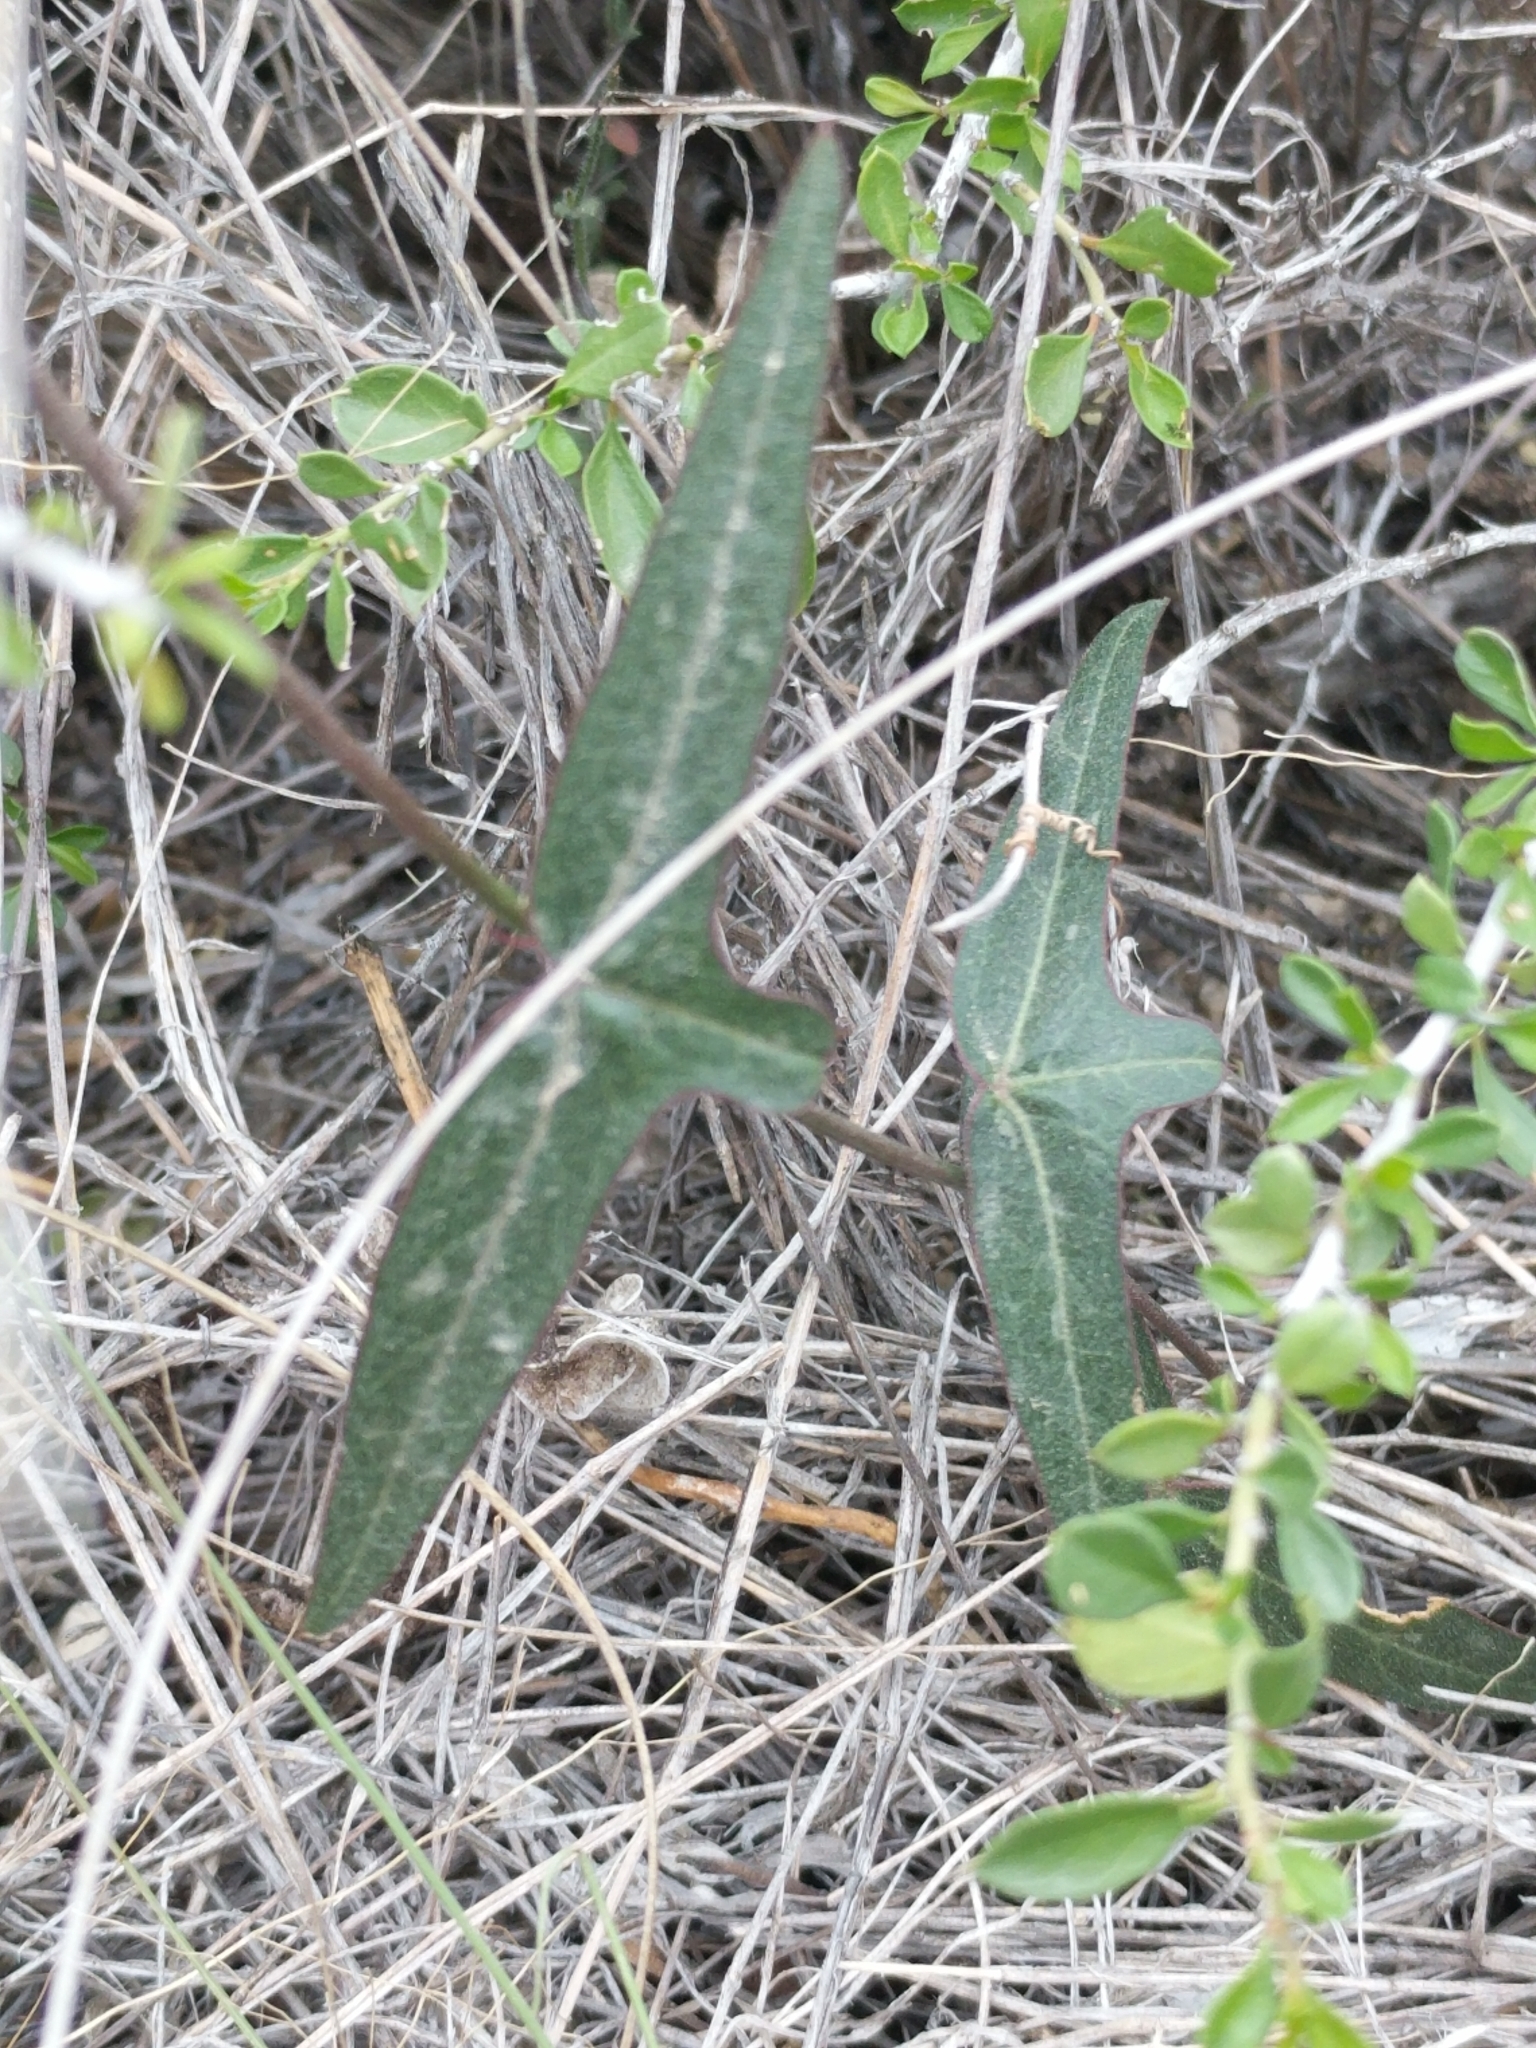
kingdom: Plantae
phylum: Tracheophyta
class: Magnoliopsida
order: Malpighiales
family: Passifloraceae
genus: Passiflora
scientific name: Passiflora tenuiloba
